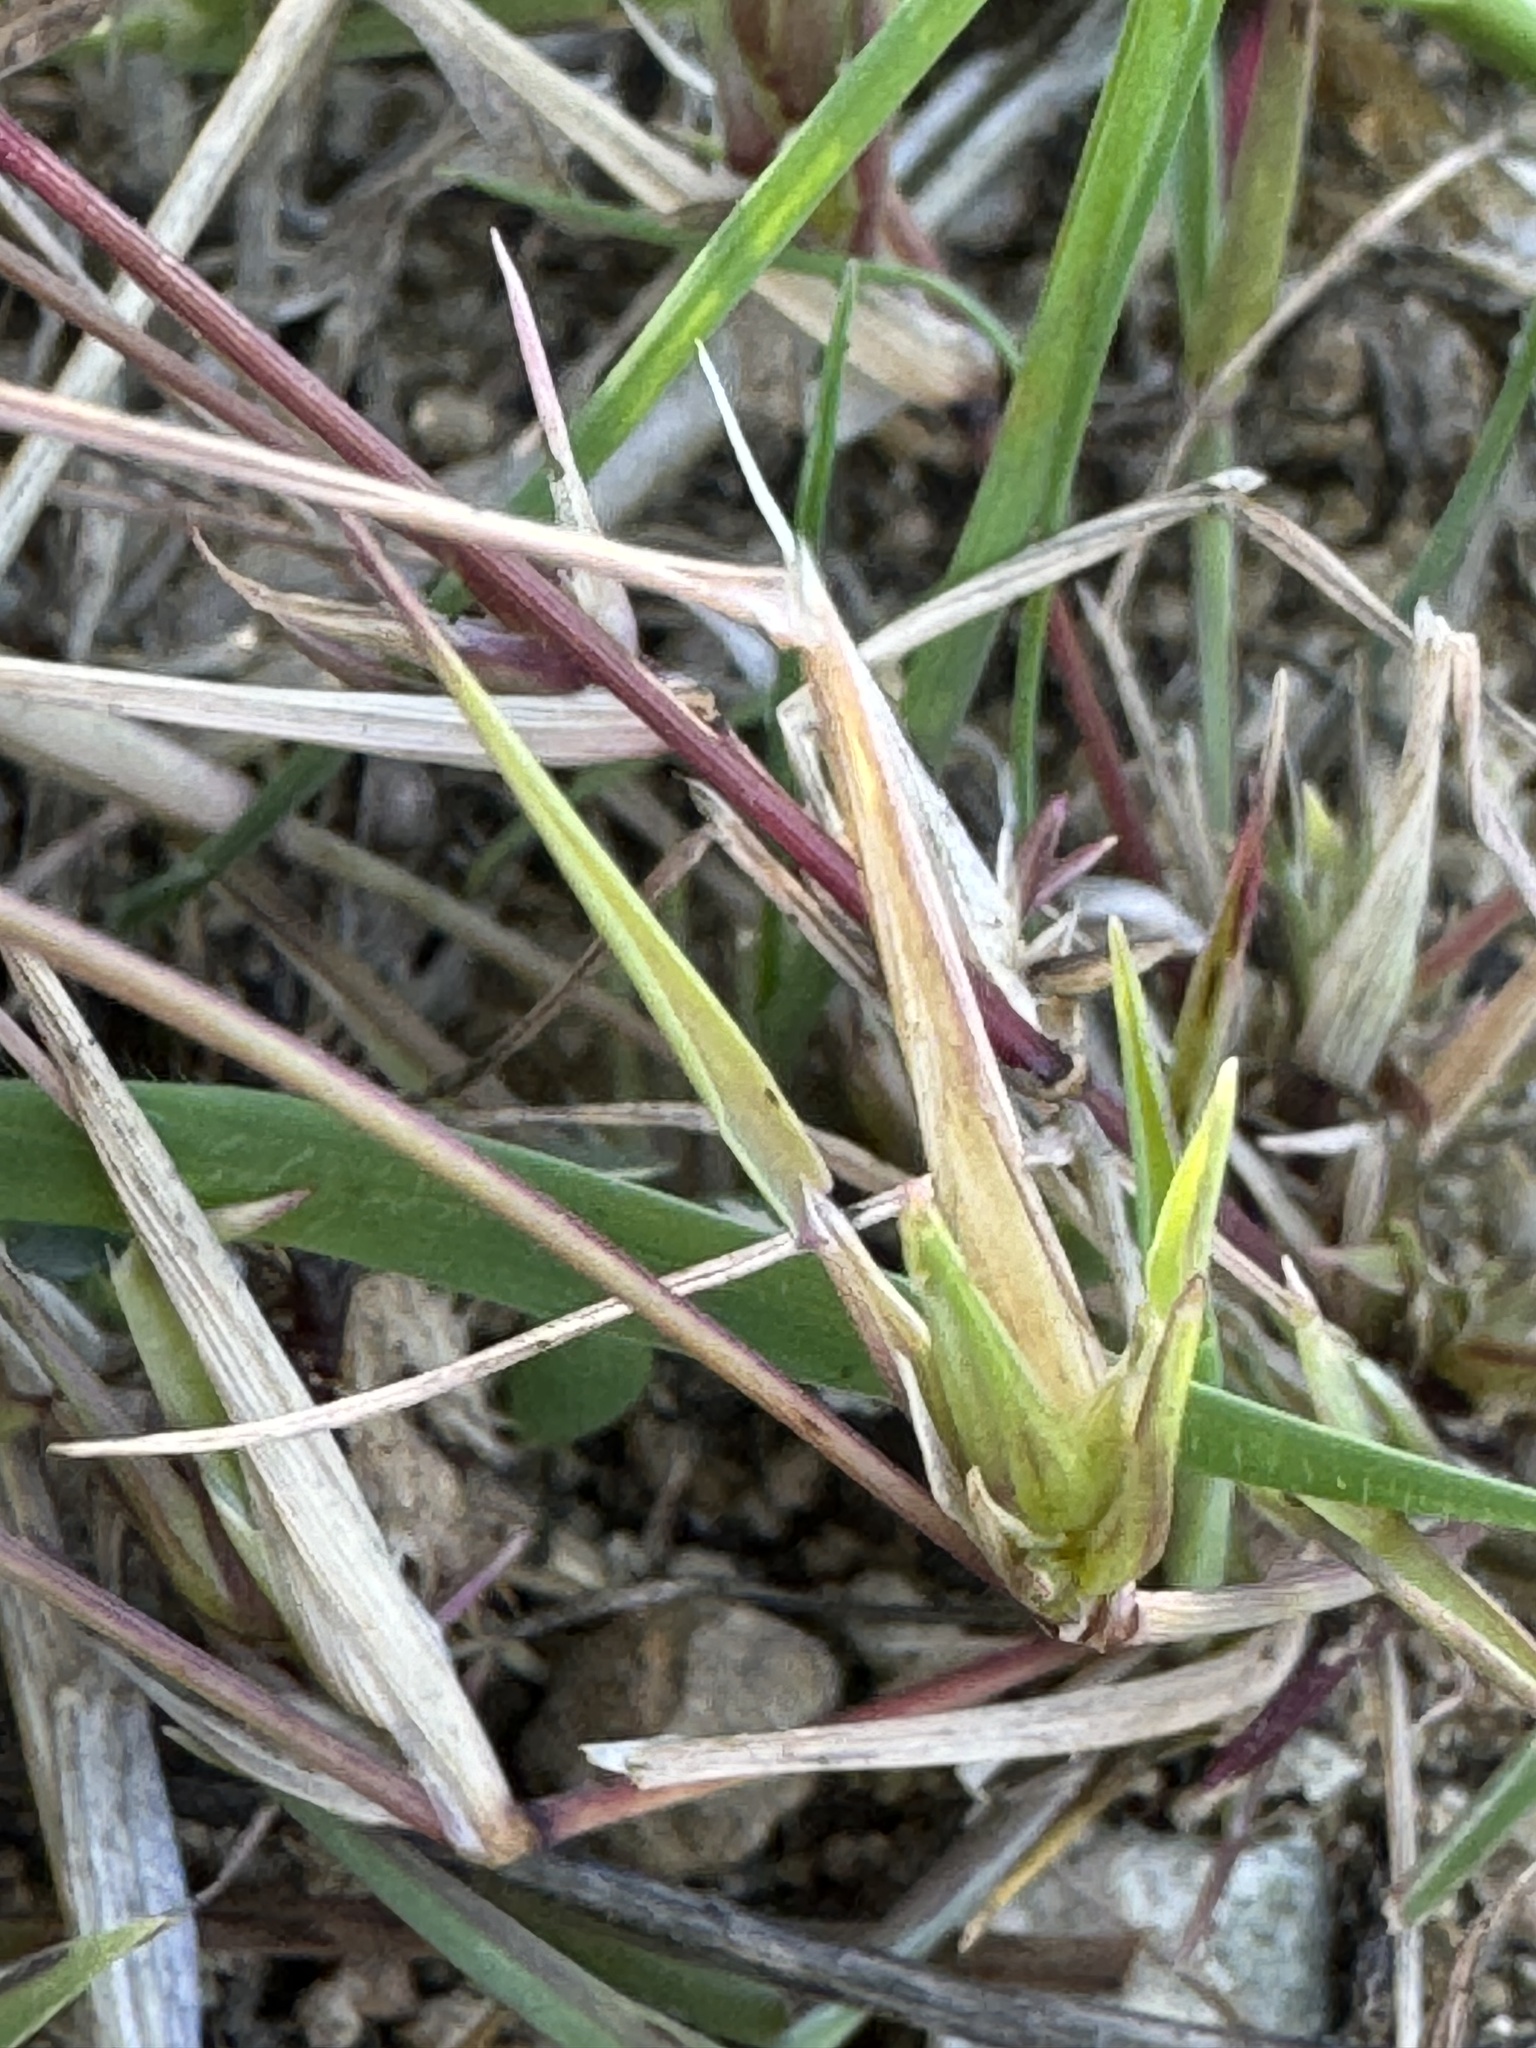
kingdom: Plantae
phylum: Tracheophyta
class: Liliopsida
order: Poales
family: Poaceae
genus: Muhlenbergia
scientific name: Muhlenbergia microsperma
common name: Littleseed muhly
